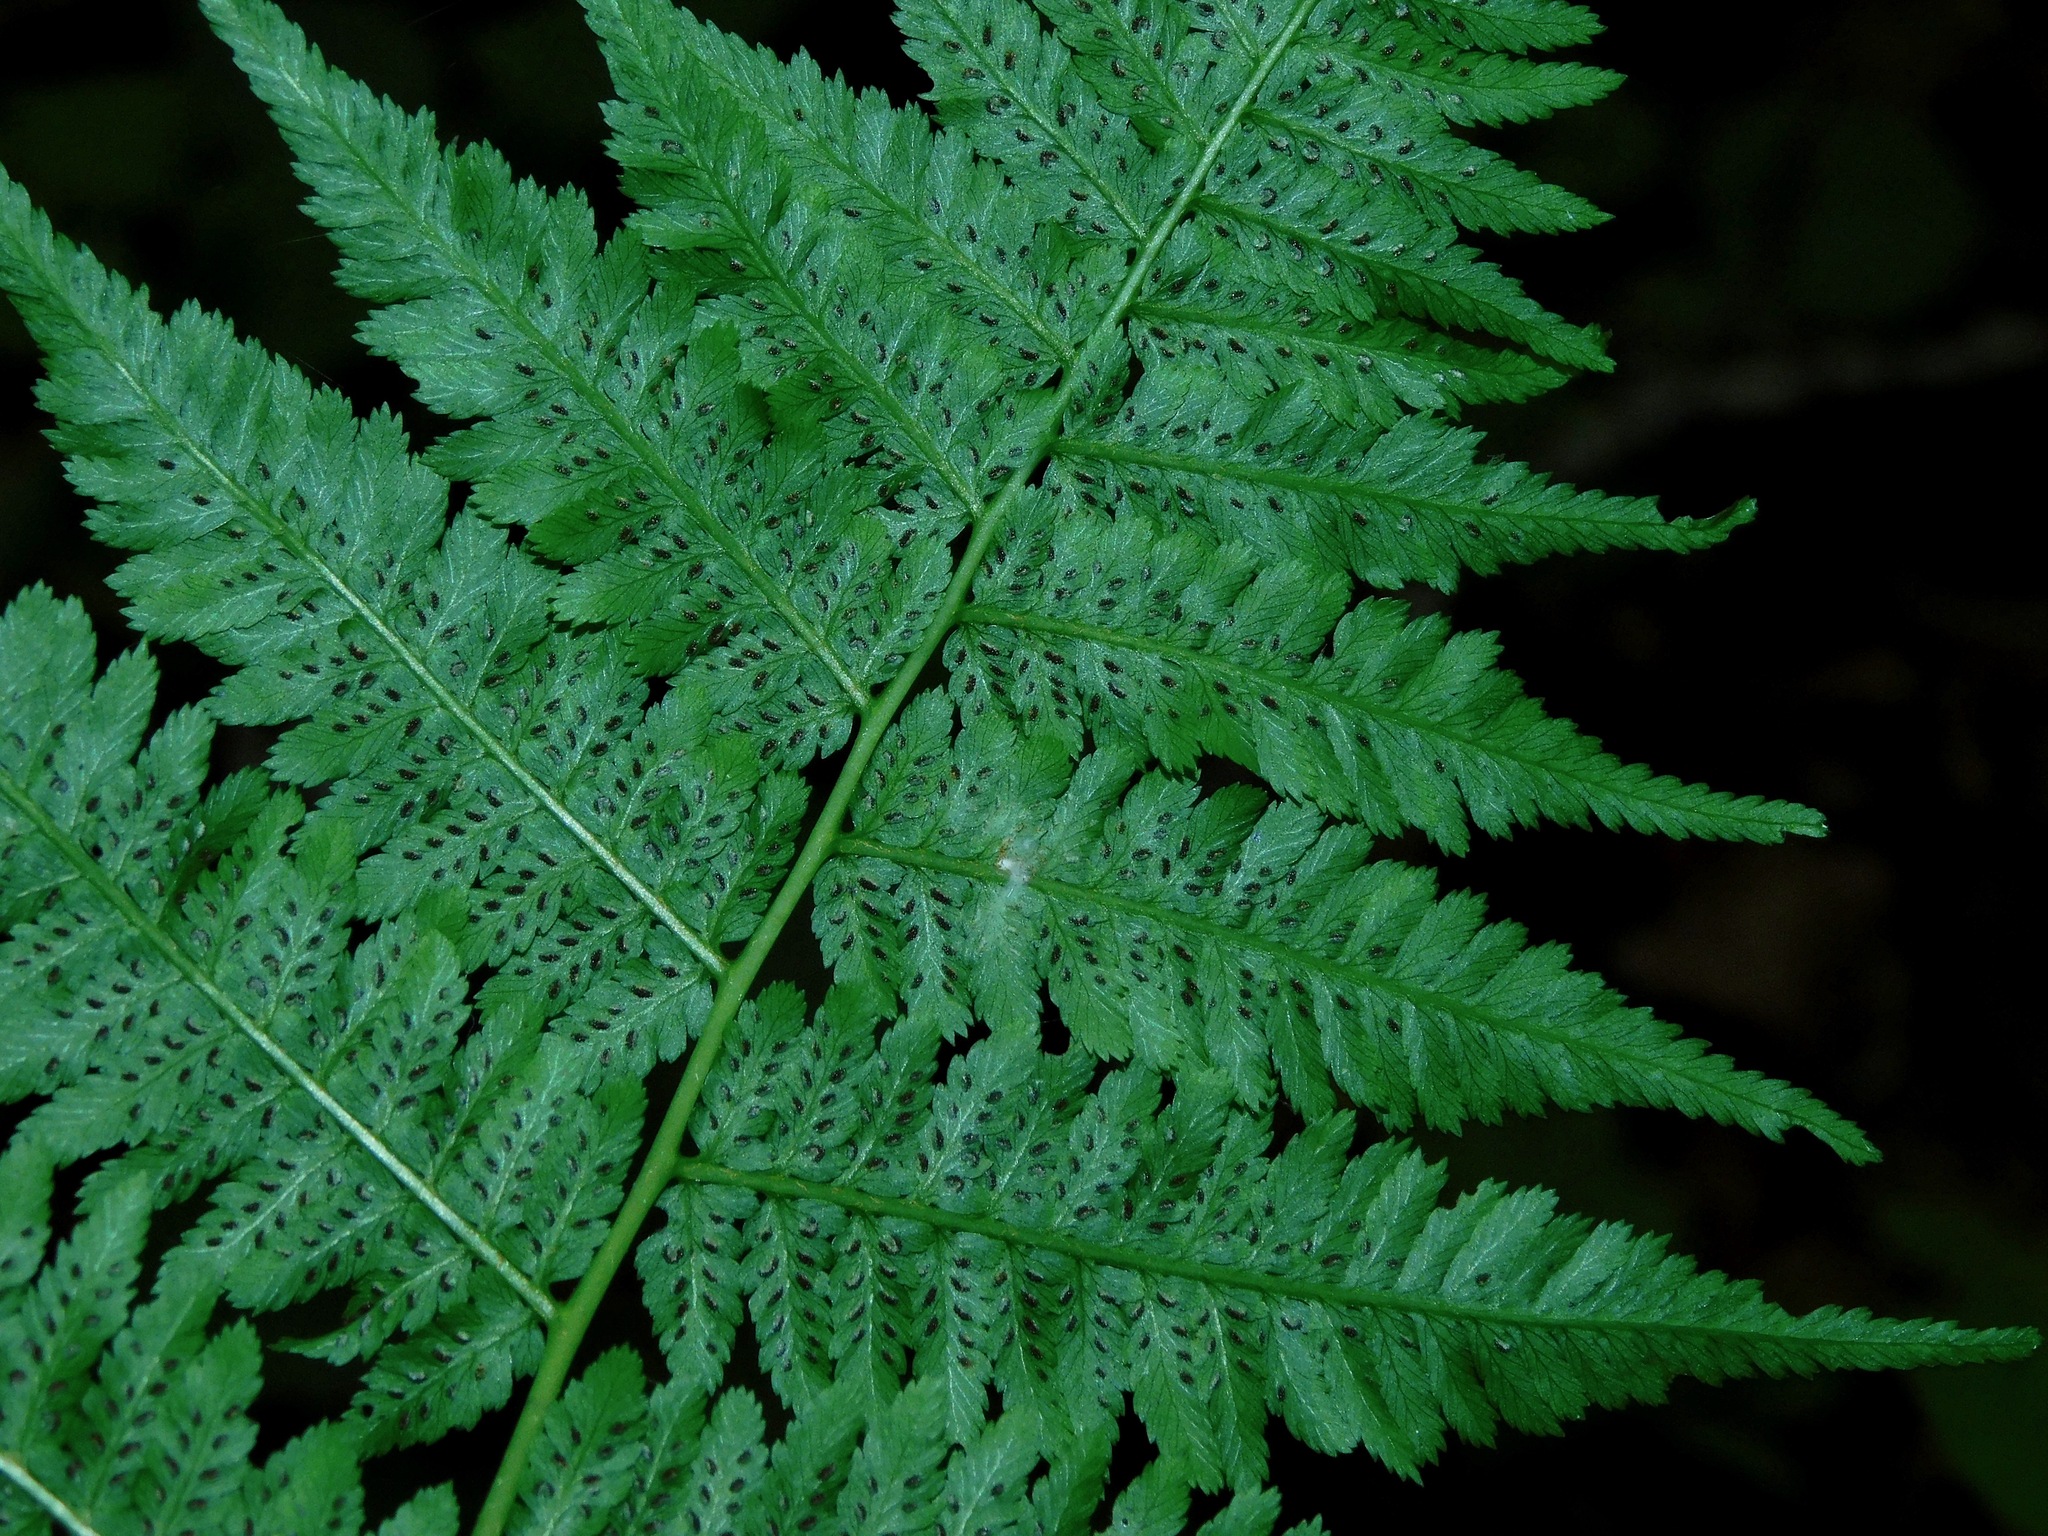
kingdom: Plantae
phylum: Tracheophyta
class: Polypodiopsida
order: Polypodiales
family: Athyriaceae
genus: Athyrium
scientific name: Athyrium asplenioides
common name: Southern lady fern
